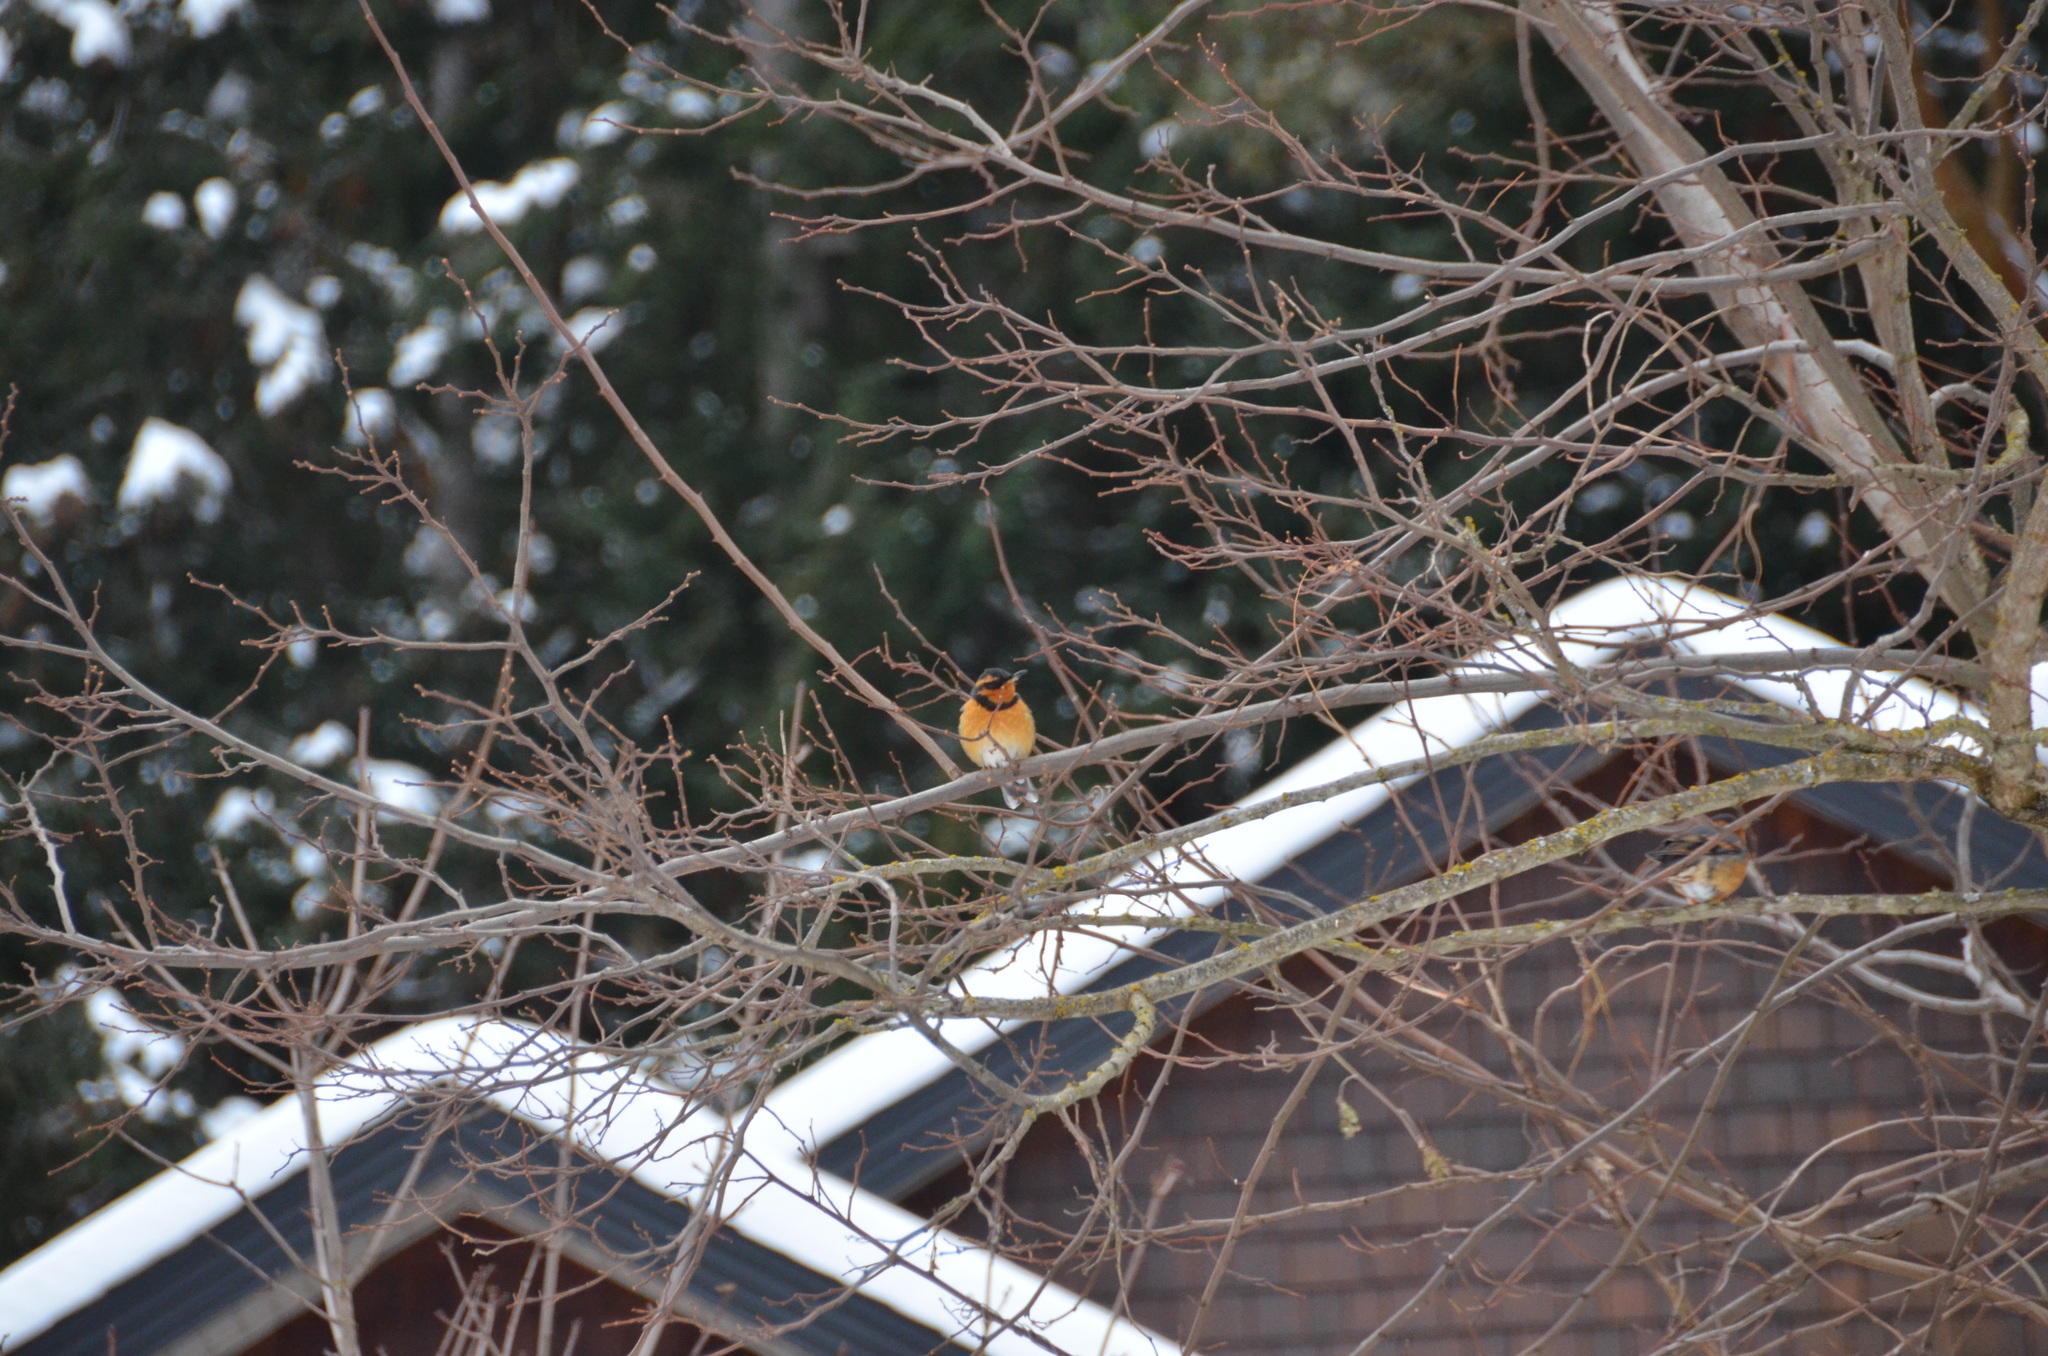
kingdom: Animalia
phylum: Chordata
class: Aves
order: Passeriformes
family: Turdidae
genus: Ixoreus
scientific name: Ixoreus naevius
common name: Varied thrush
